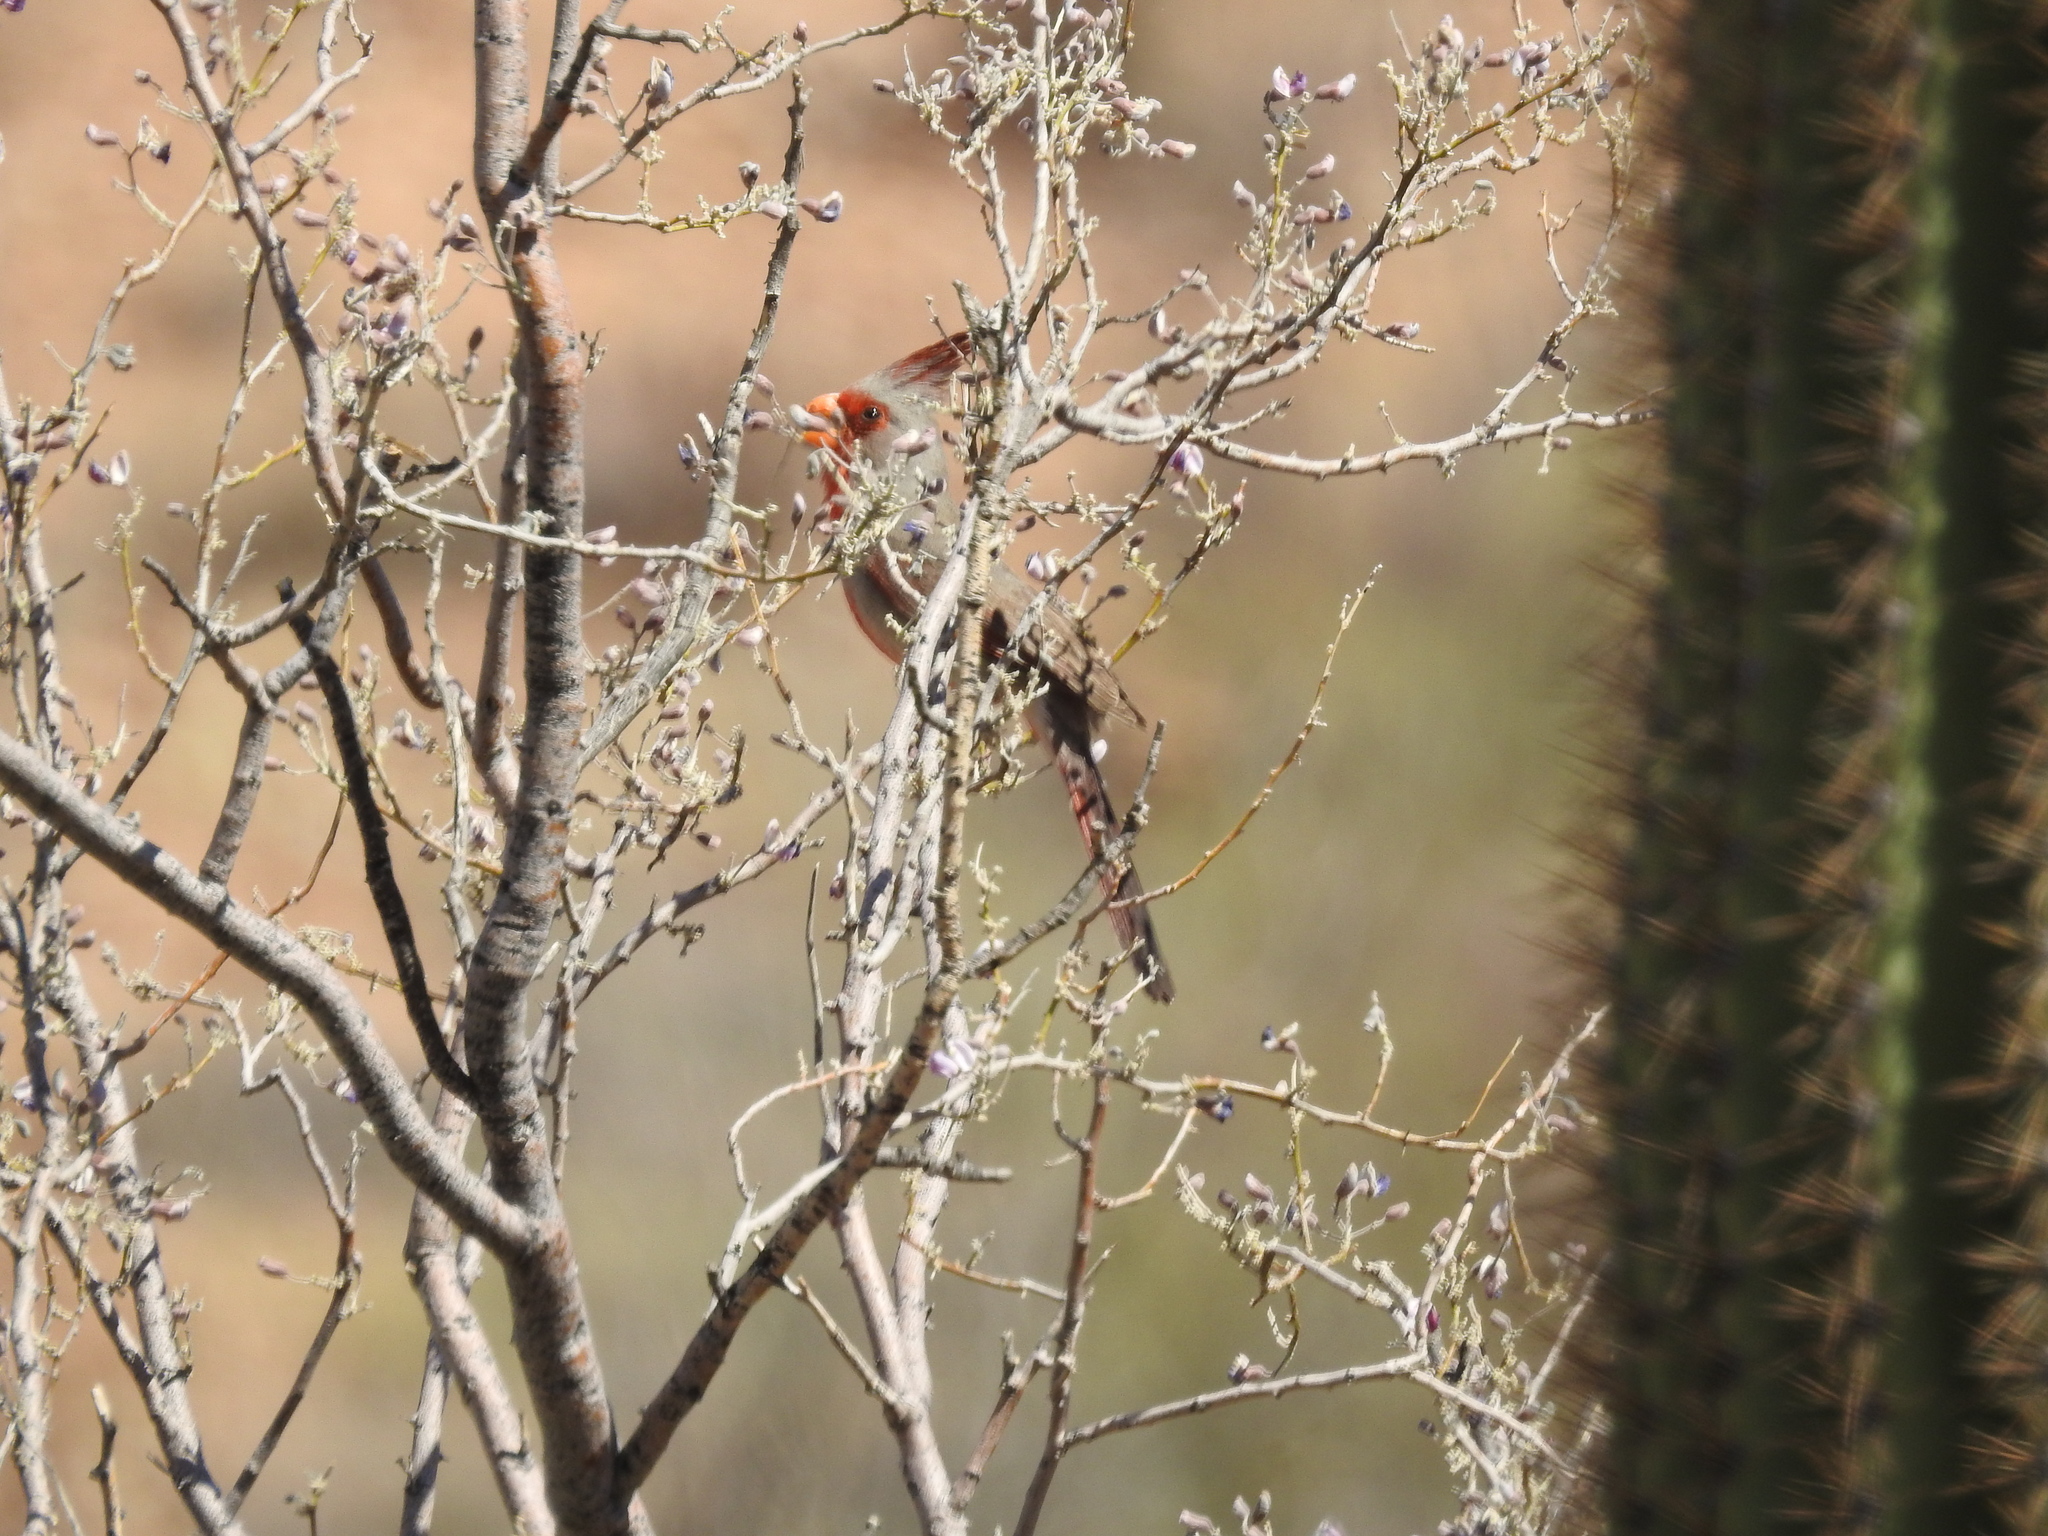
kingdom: Animalia
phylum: Chordata
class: Aves
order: Passeriformes
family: Cardinalidae
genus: Cardinalis
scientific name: Cardinalis sinuatus
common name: Pyrrhuloxia
